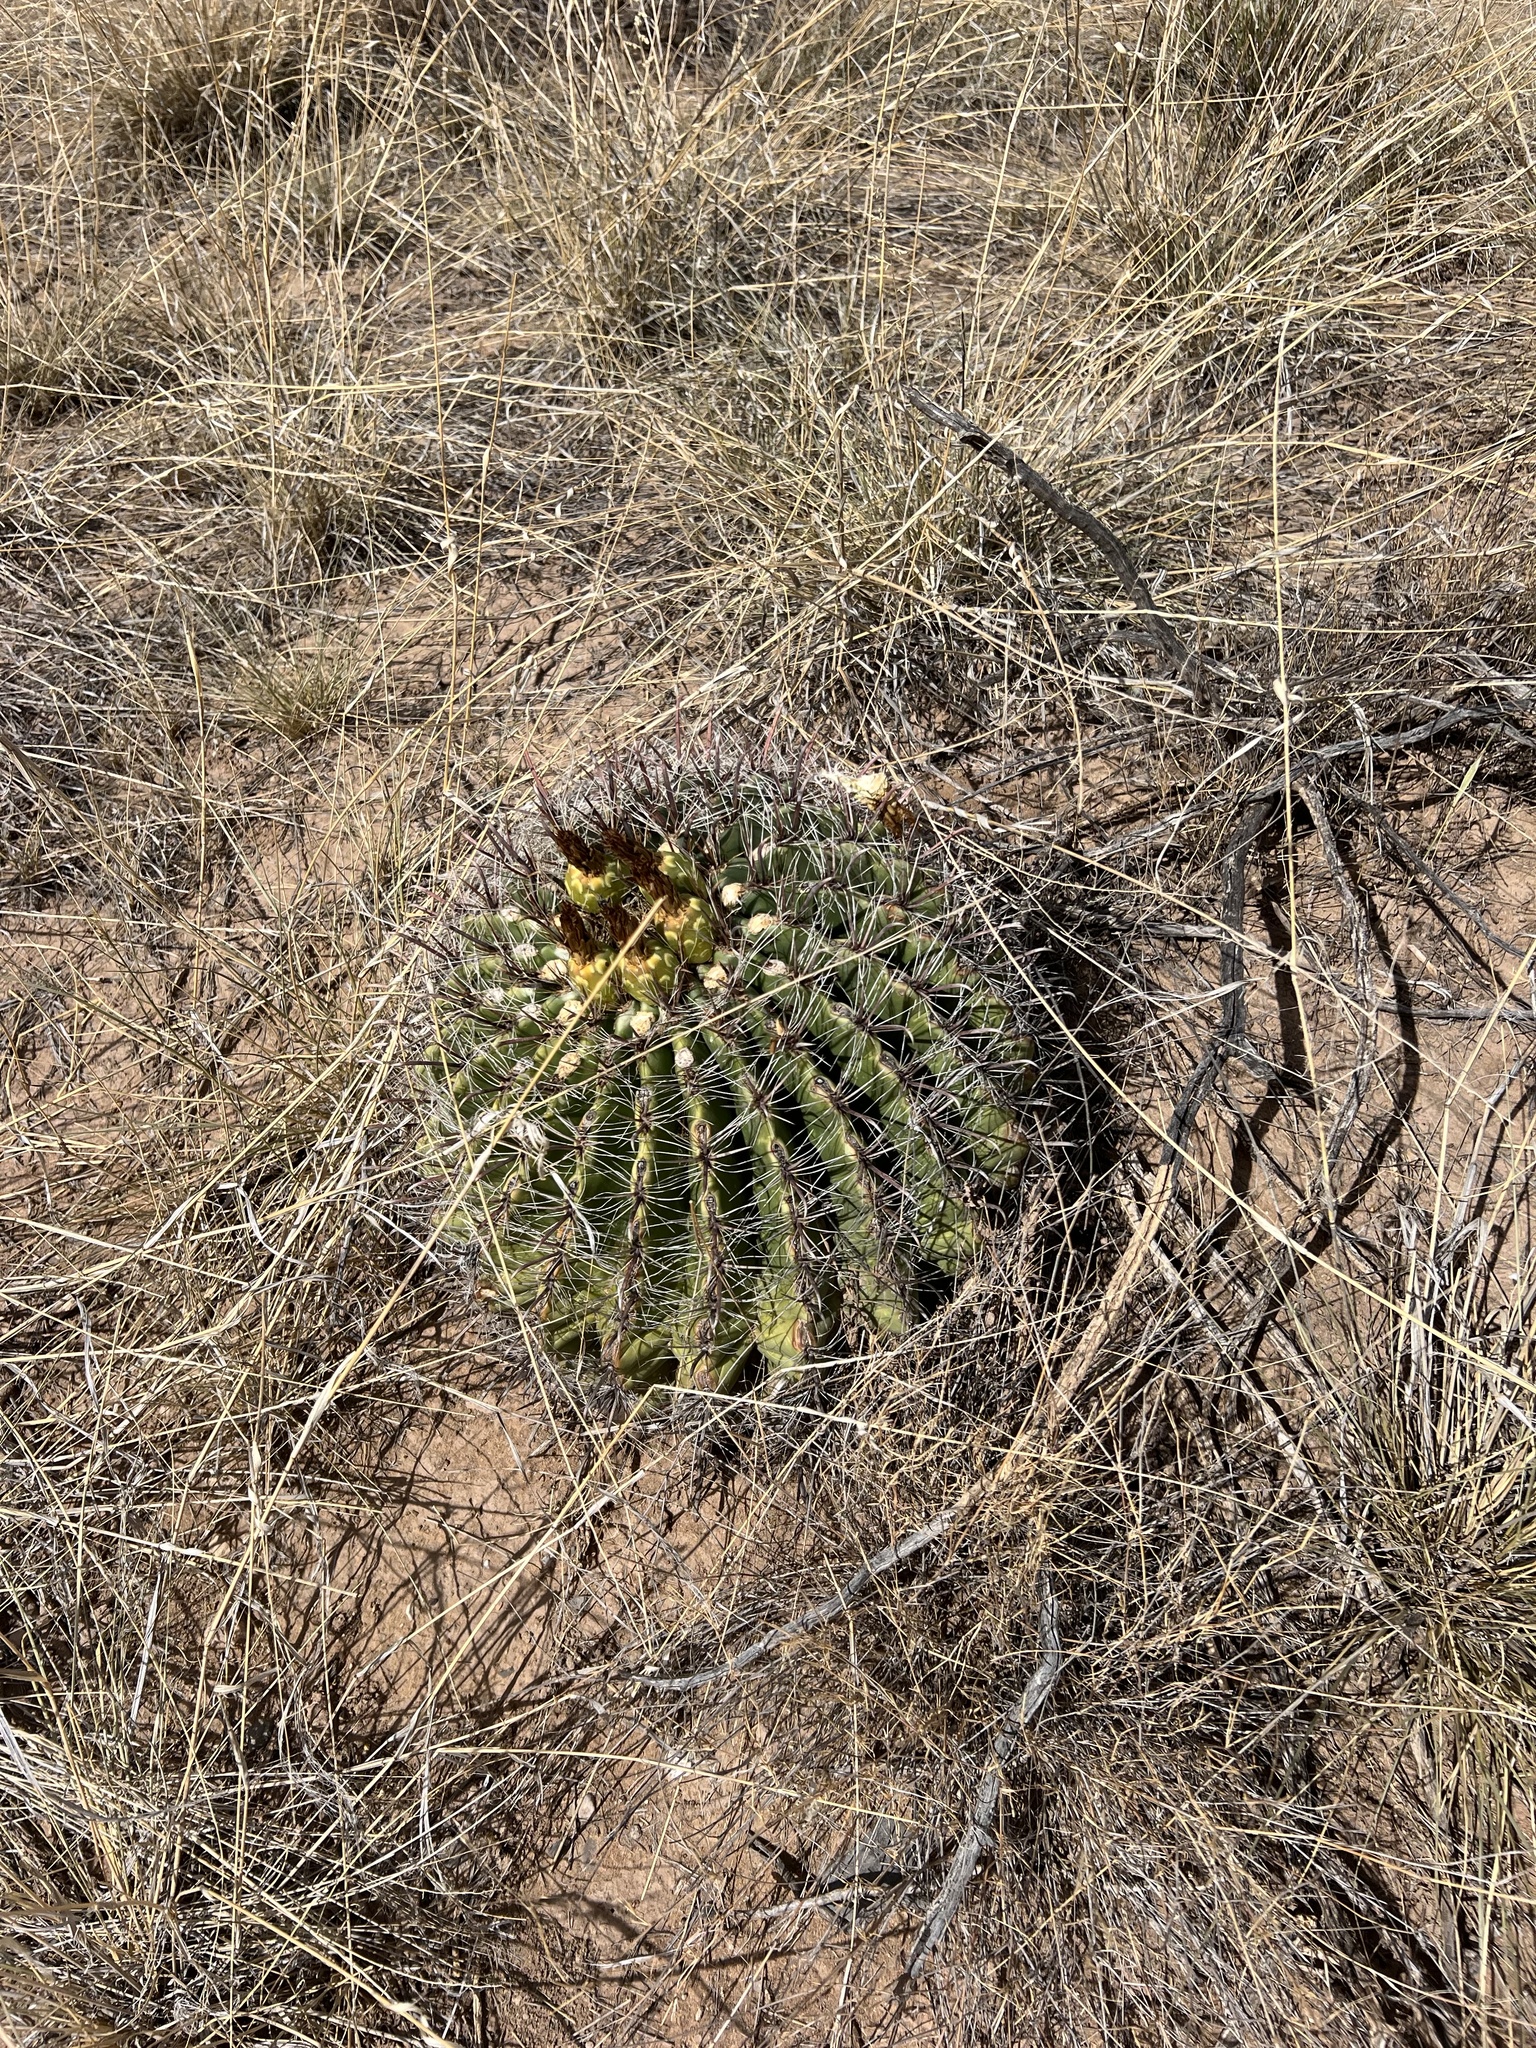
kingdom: Plantae
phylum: Tracheophyta
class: Magnoliopsida
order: Caryophyllales
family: Cactaceae
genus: Ferocactus
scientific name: Ferocactus wislizeni
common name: Candy barrel cactus
